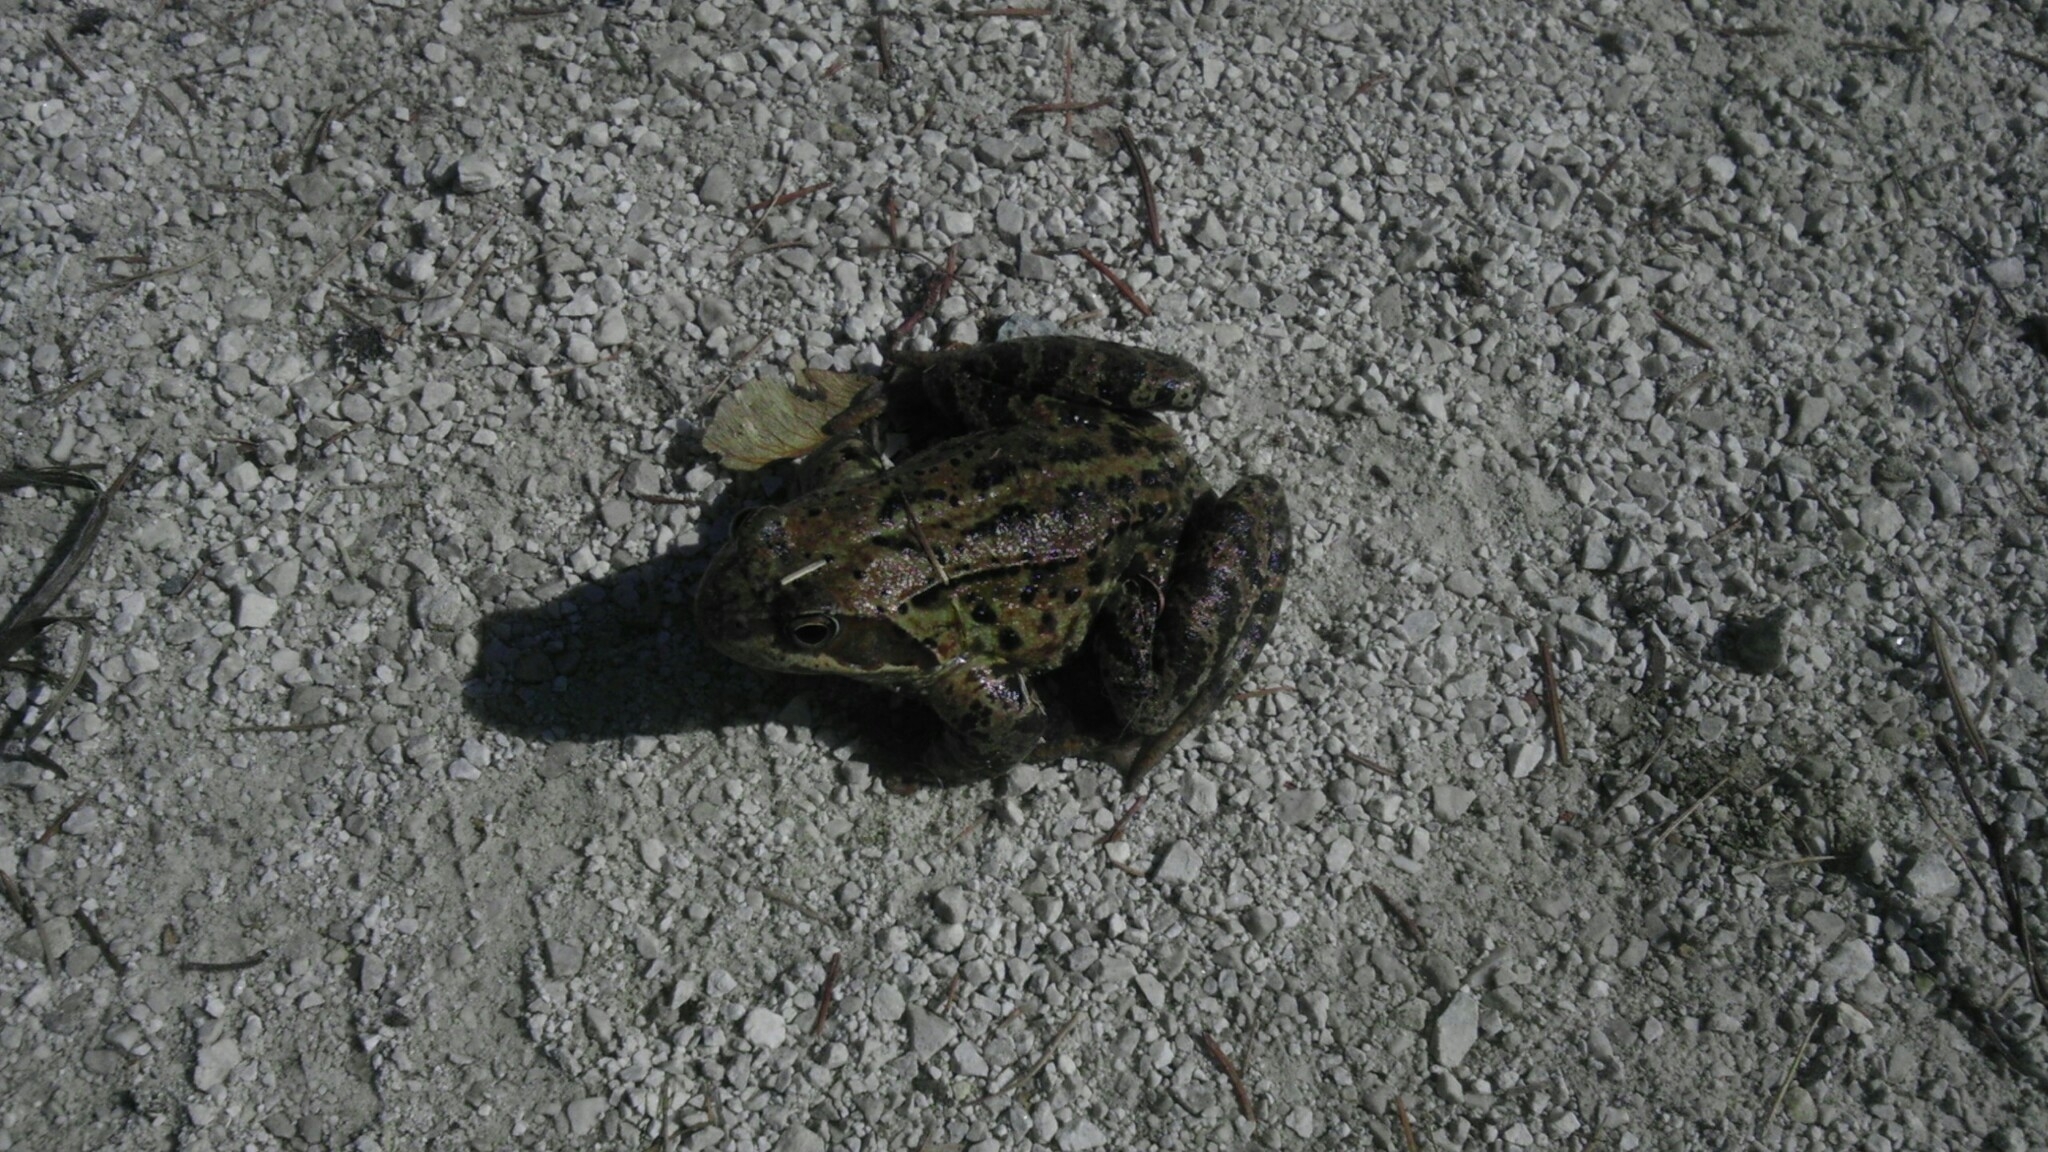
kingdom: Animalia
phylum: Chordata
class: Amphibia
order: Anura
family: Ranidae
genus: Rana
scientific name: Rana temporaria
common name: Common frog
